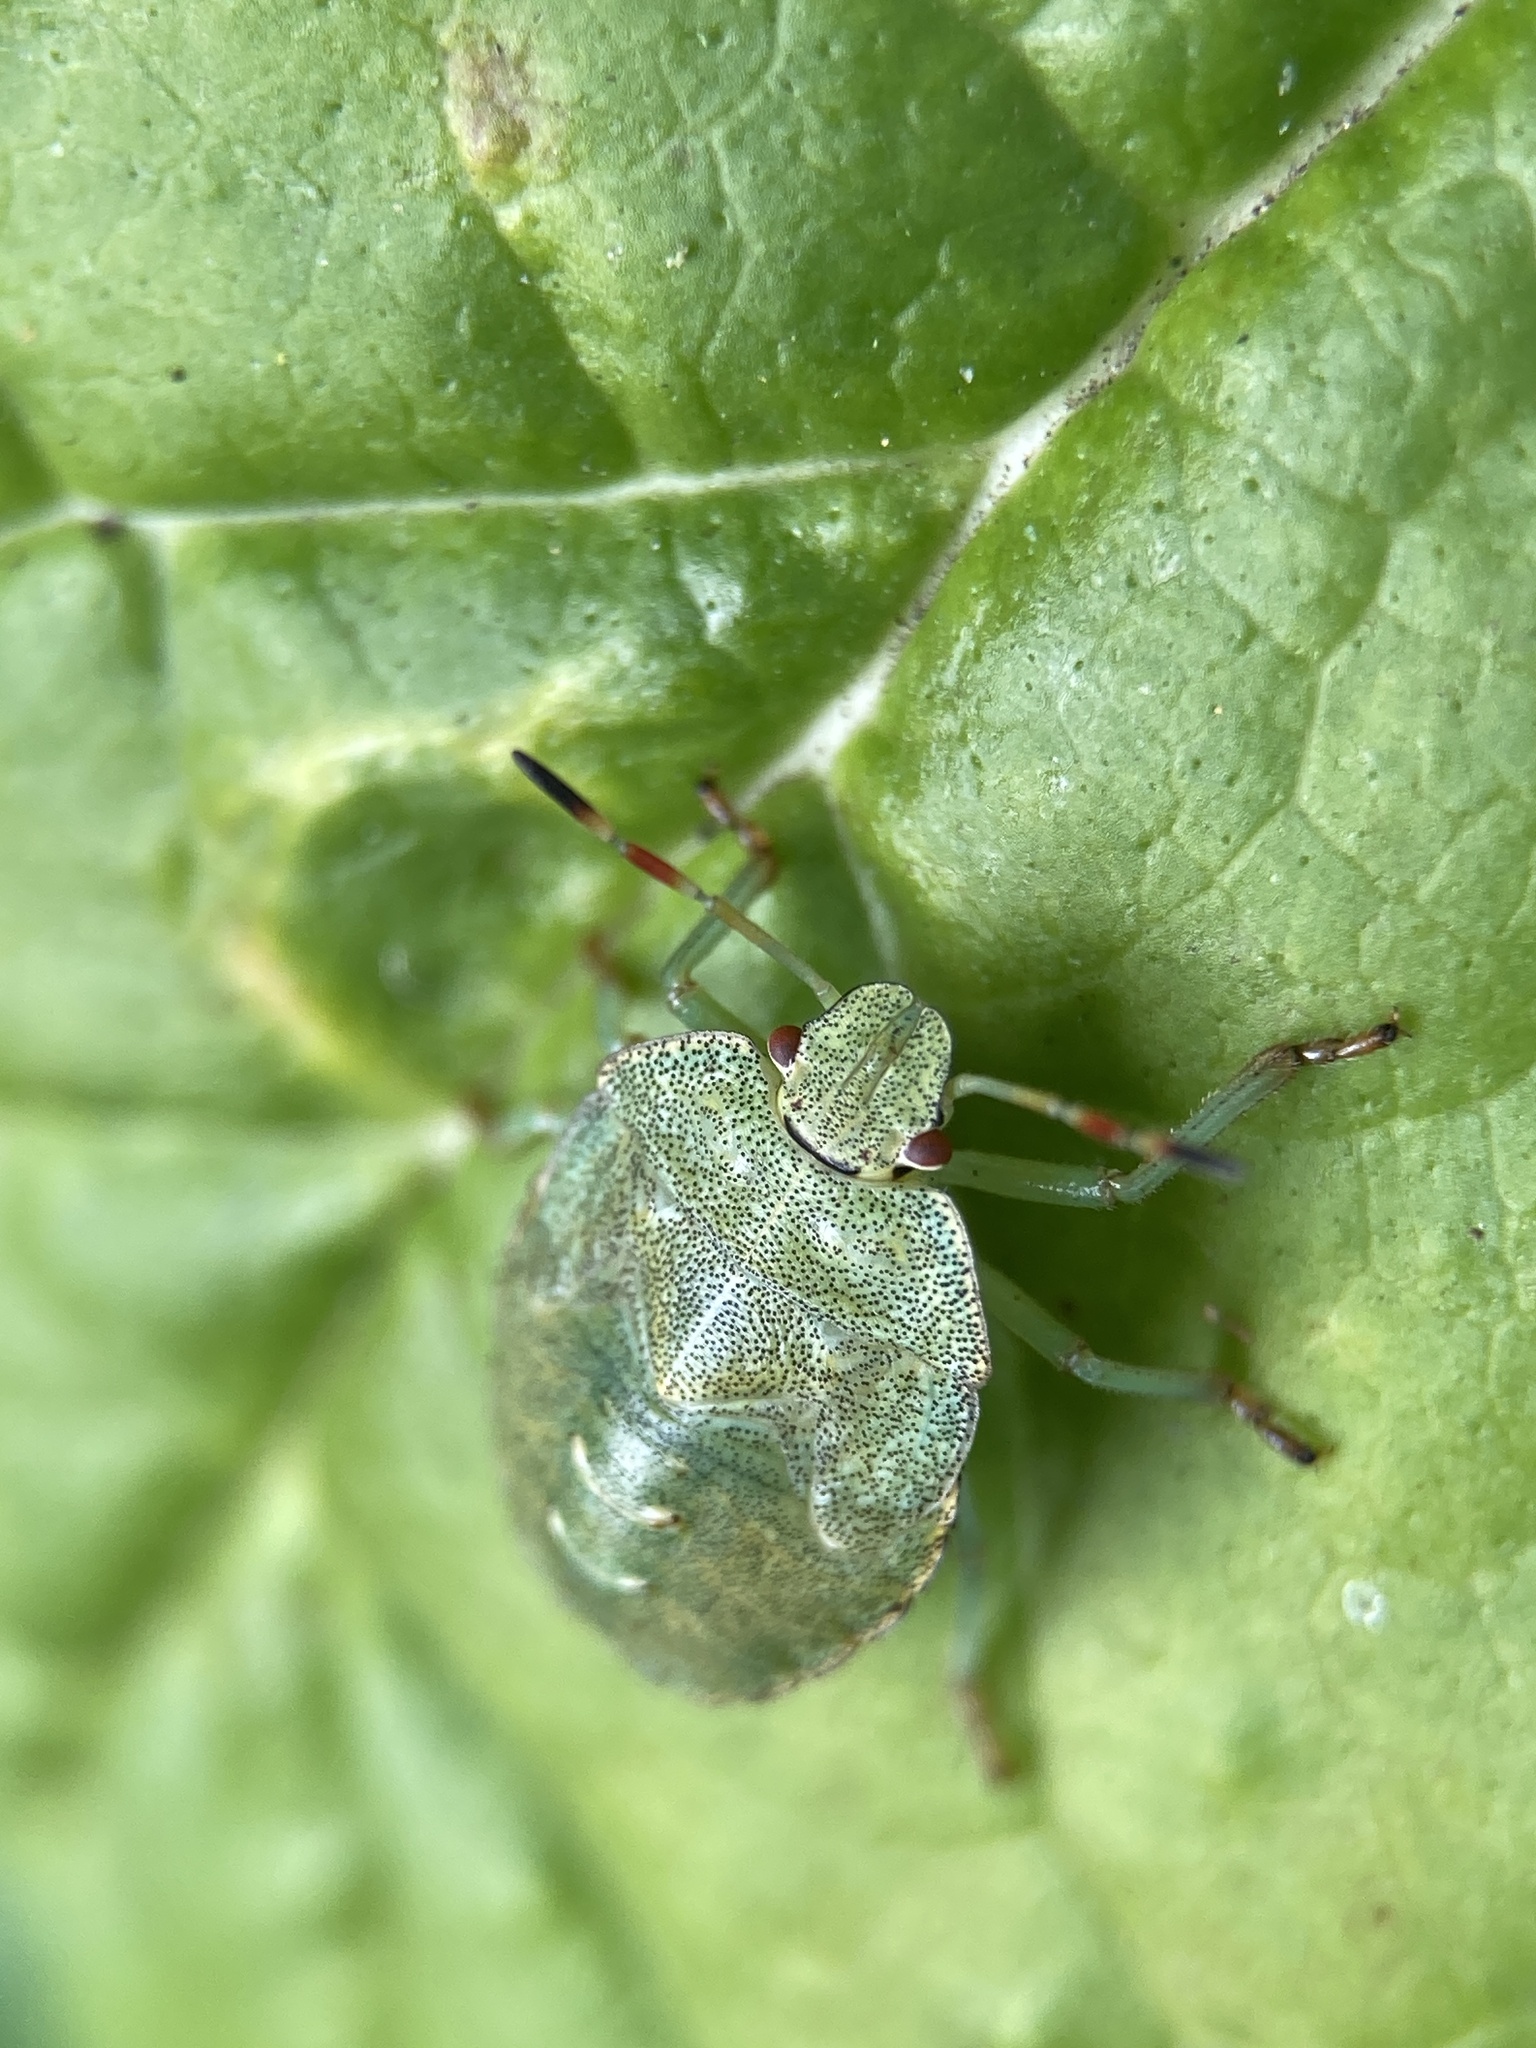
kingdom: Animalia
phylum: Arthropoda
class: Insecta
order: Hemiptera
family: Pentatomidae
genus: Palomena
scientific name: Palomena prasina
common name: Green shieldbug
